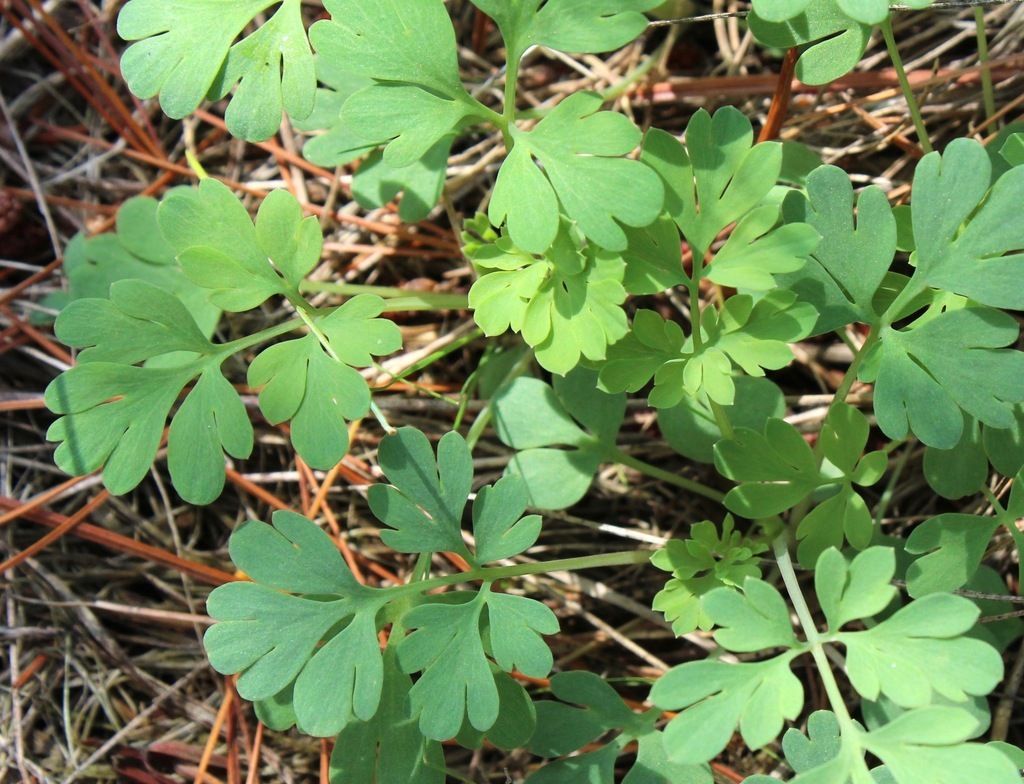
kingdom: Plantae
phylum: Tracheophyta
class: Magnoliopsida
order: Ranunculales
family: Papaveraceae
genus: Capnoides
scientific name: Capnoides sempervirens
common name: Rock harlequin
